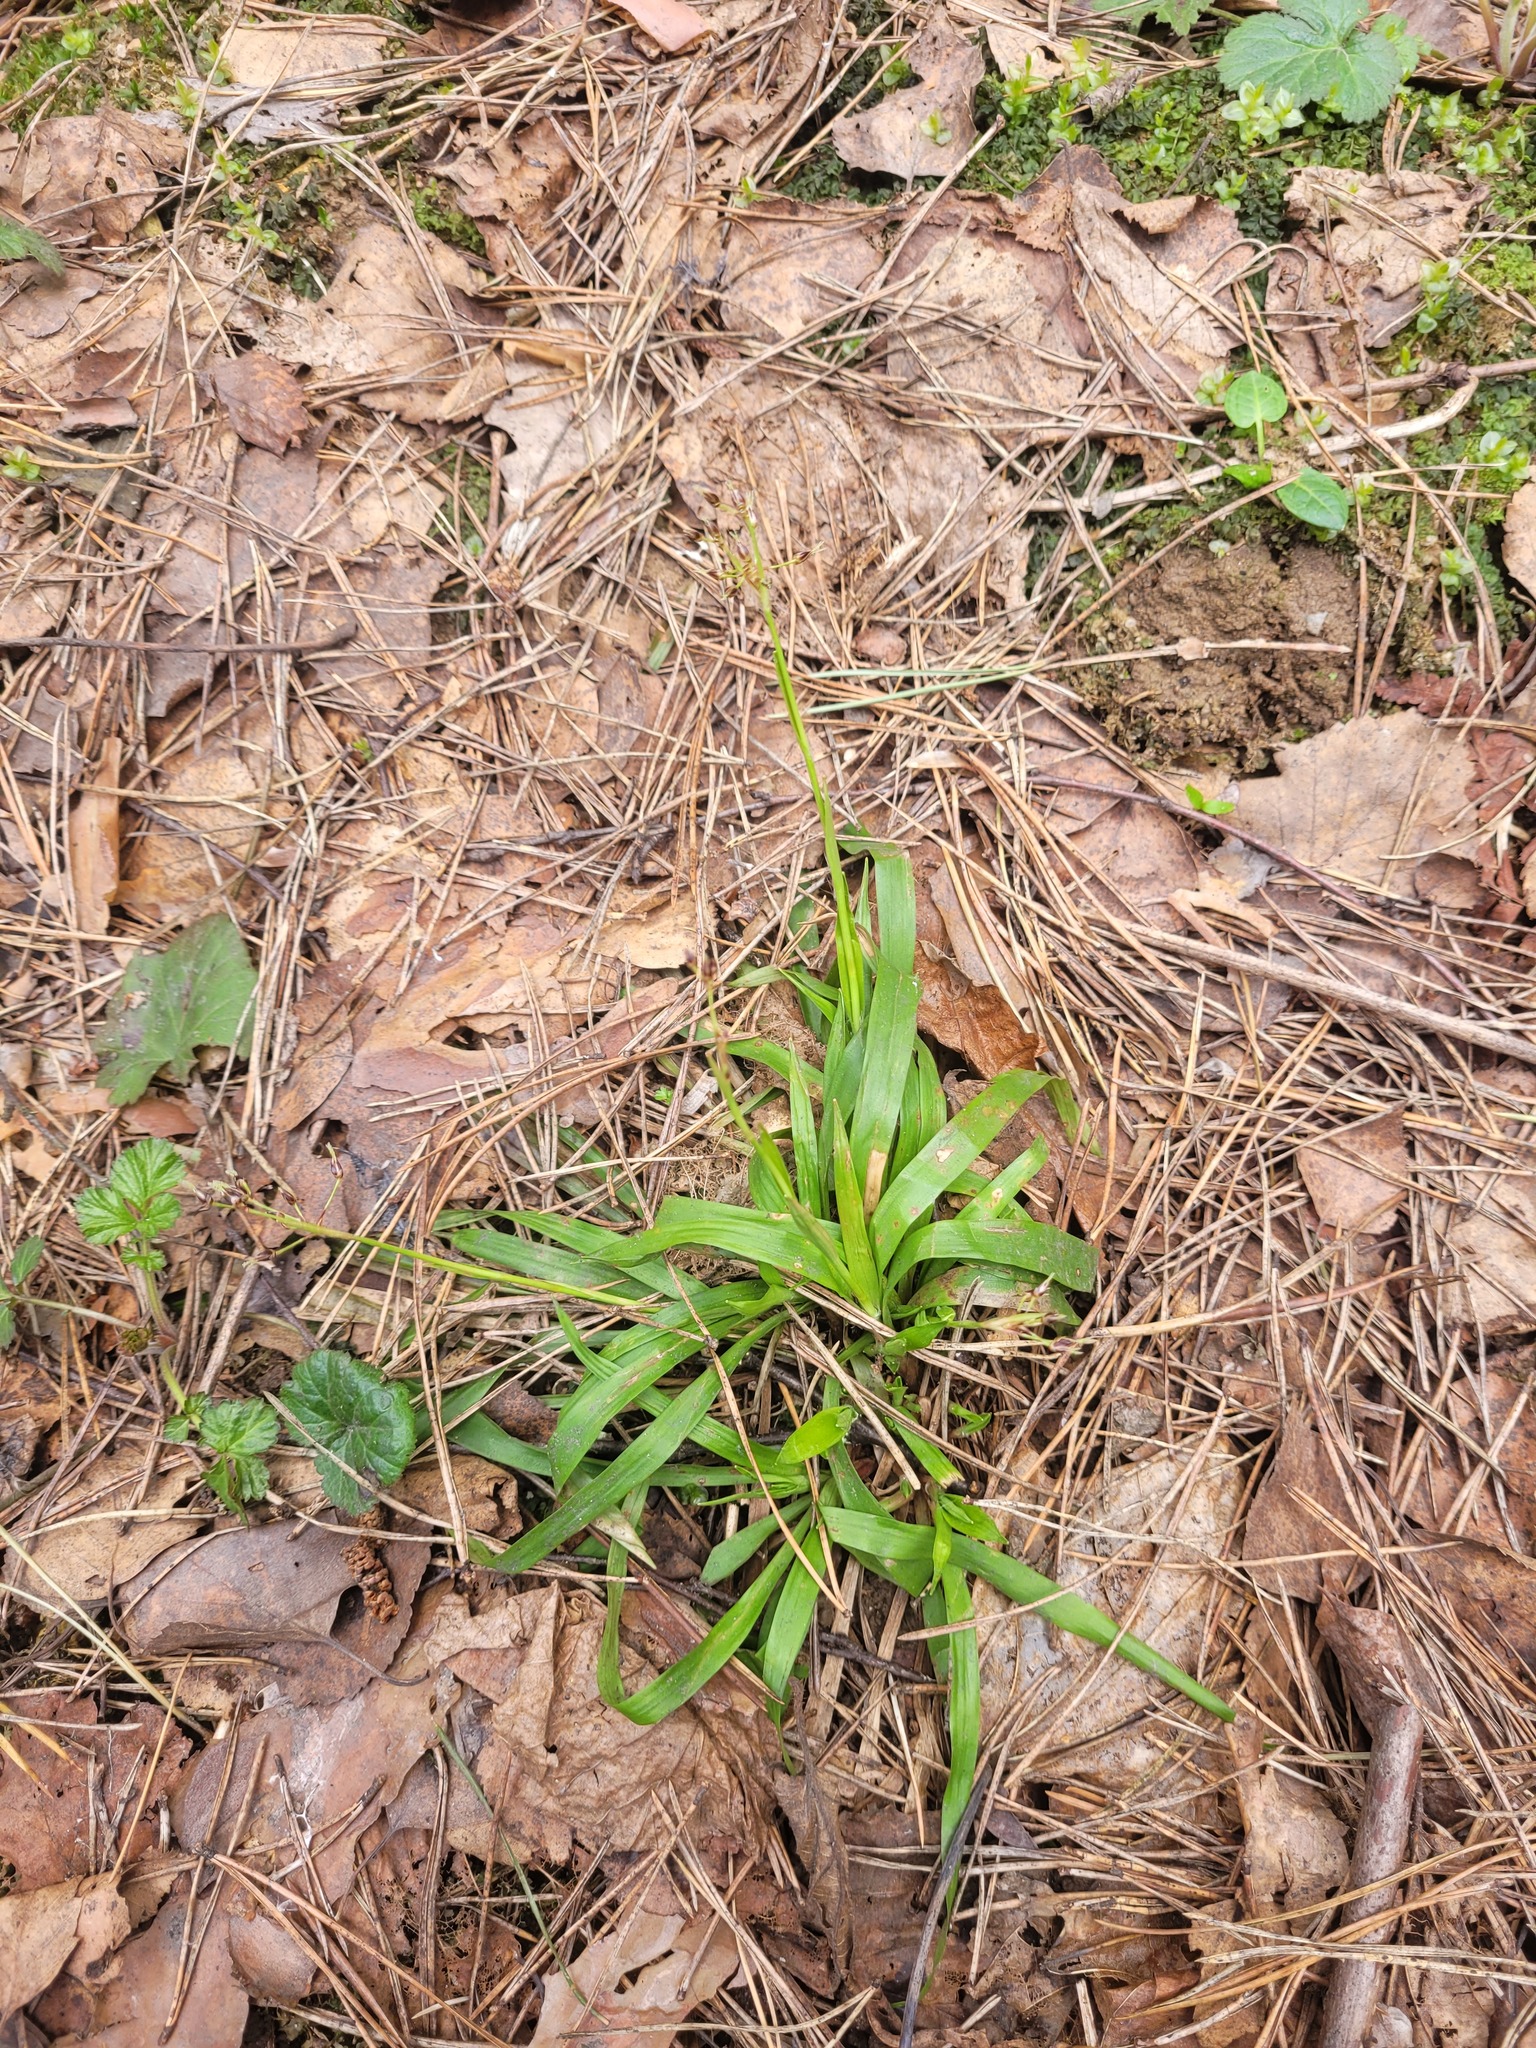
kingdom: Plantae
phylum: Tracheophyta
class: Liliopsida
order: Poales
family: Juncaceae
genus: Luzula
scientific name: Luzula pilosa
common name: Hairy wood-rush
